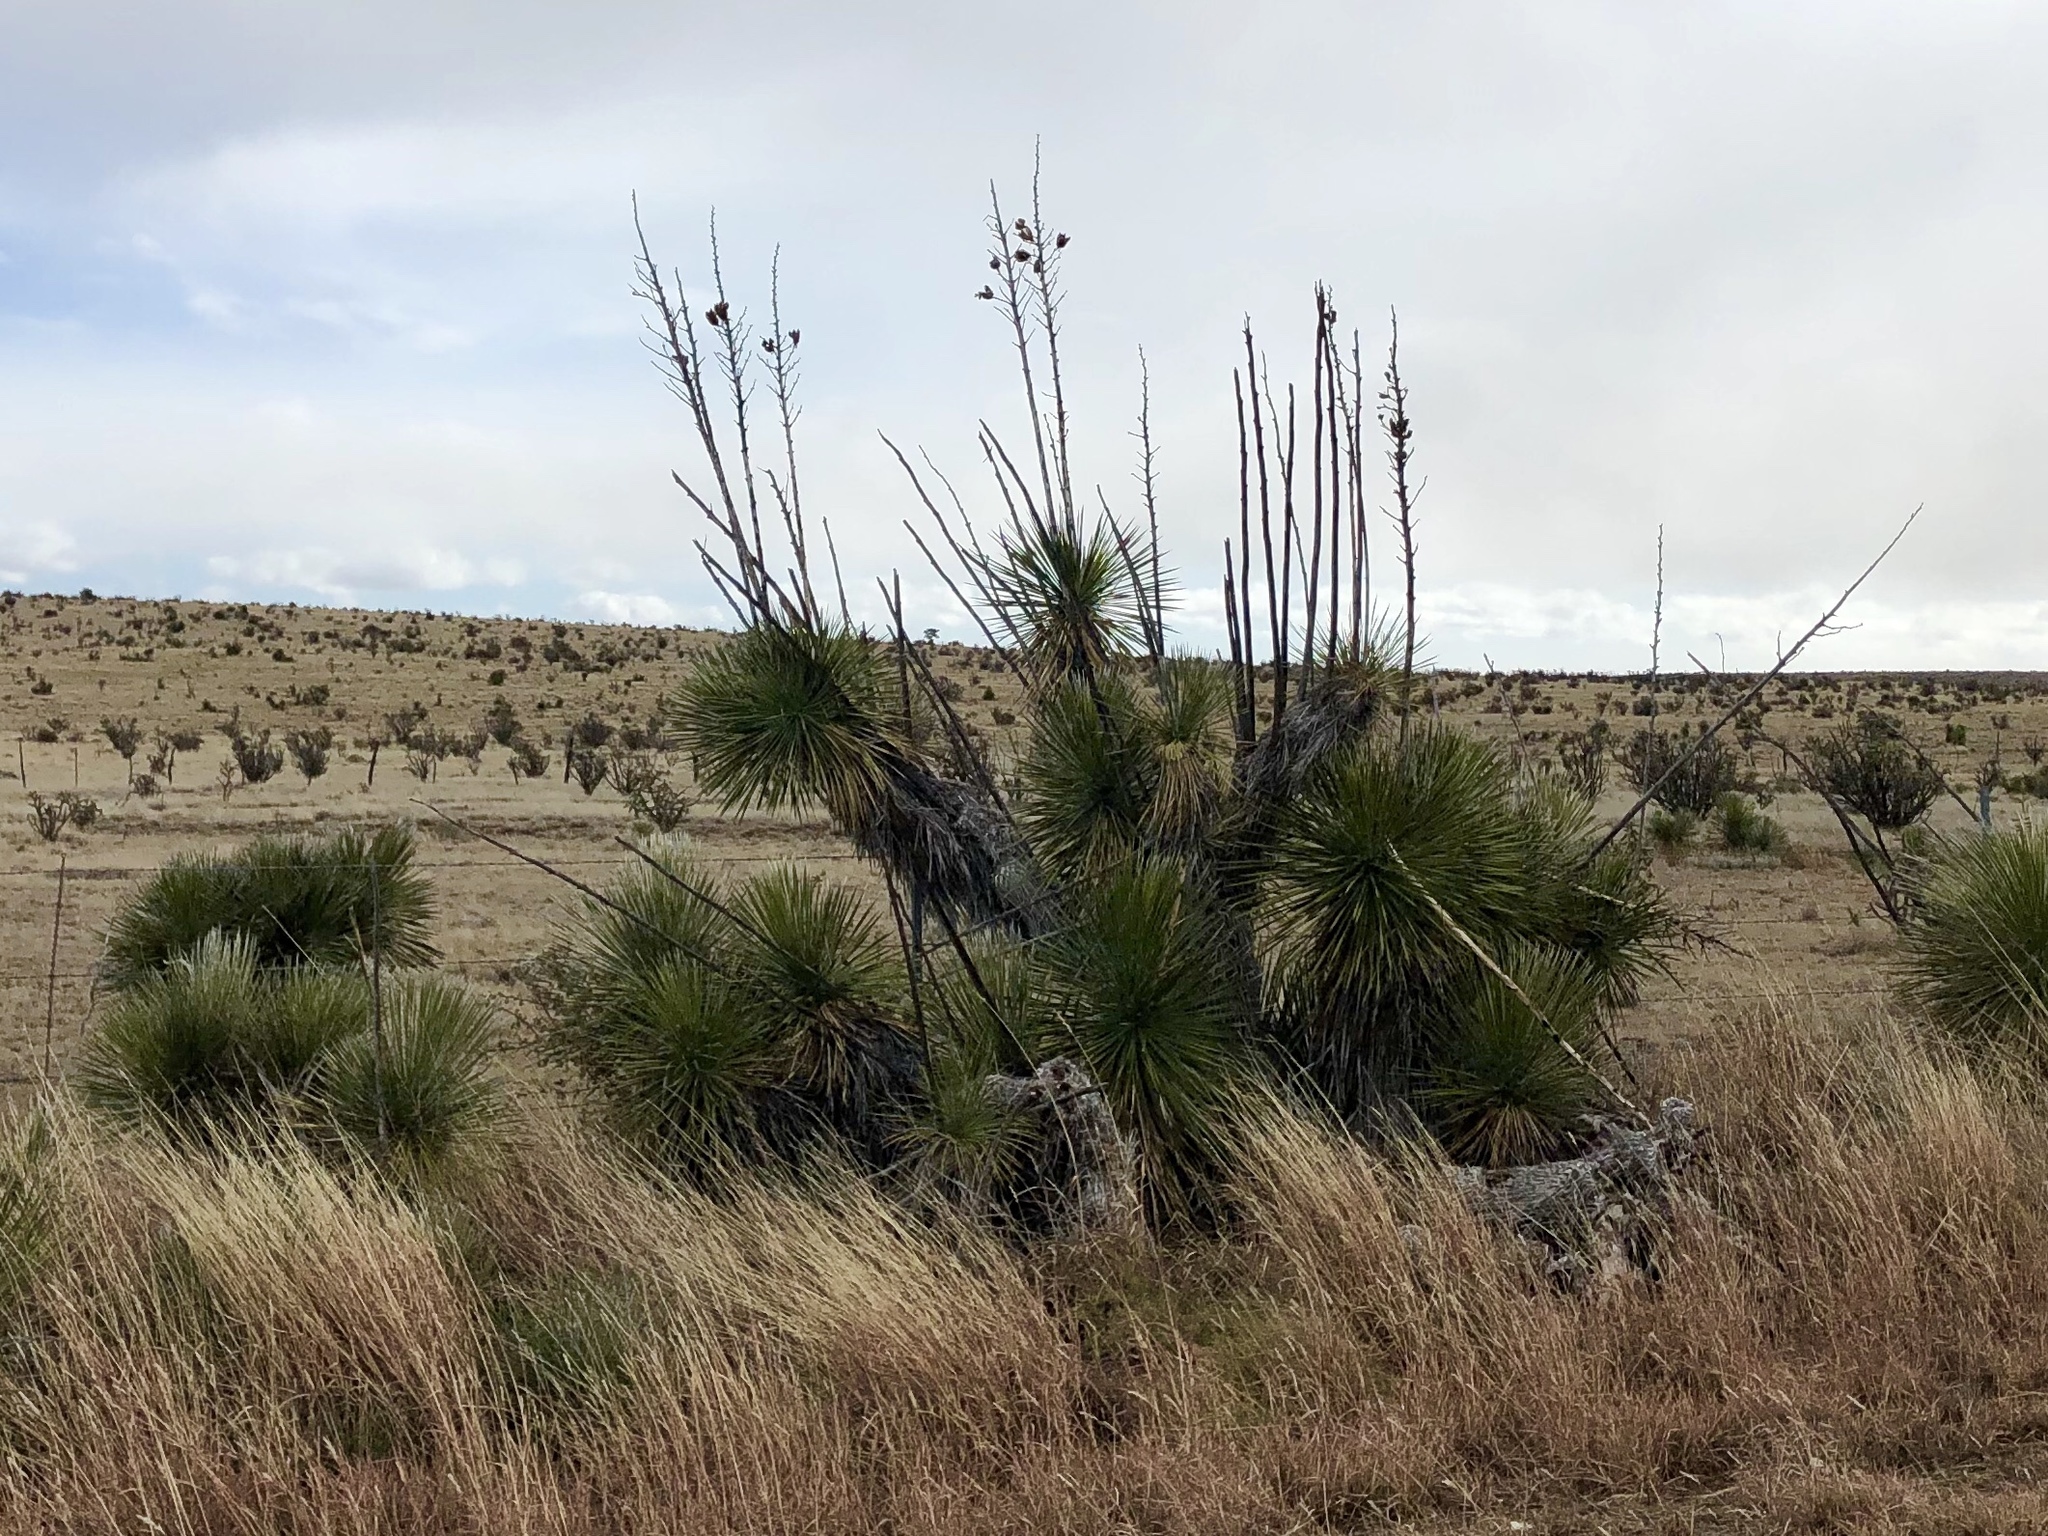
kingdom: Plantae
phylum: Tracheophyta
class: Liliopsida
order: Asparagales
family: Asparagaceae
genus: Yucca
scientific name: Yucca elata
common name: Palmella
